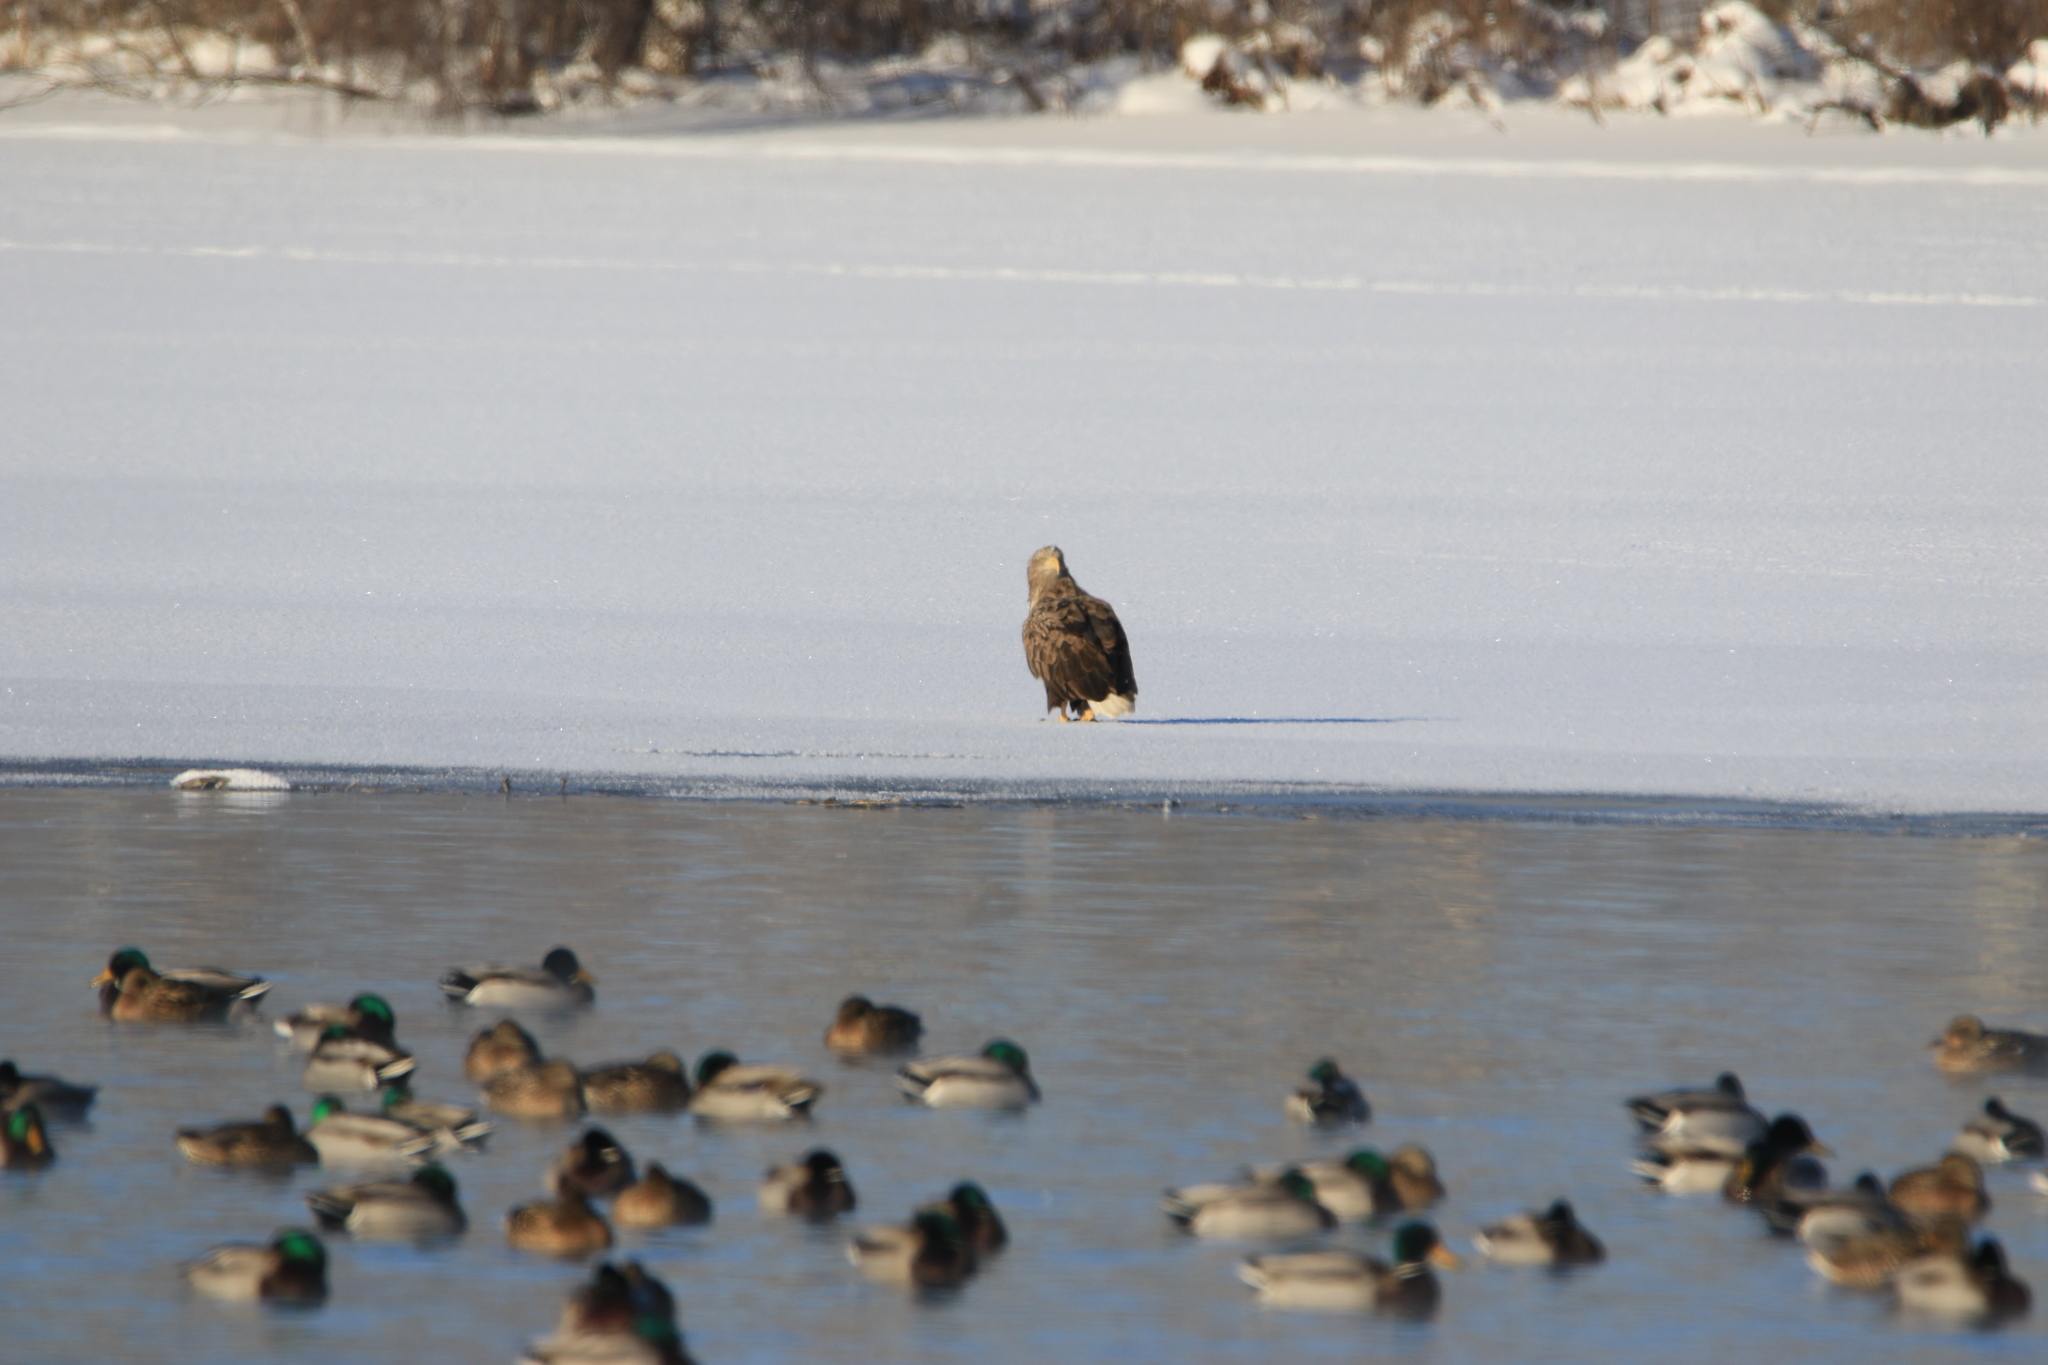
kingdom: Animalia
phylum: Chordata
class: Aves
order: Accipitriformes
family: Accipitridae
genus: Haliaeetus
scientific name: Haliaeetus albicilla
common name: White-tailed eagle
